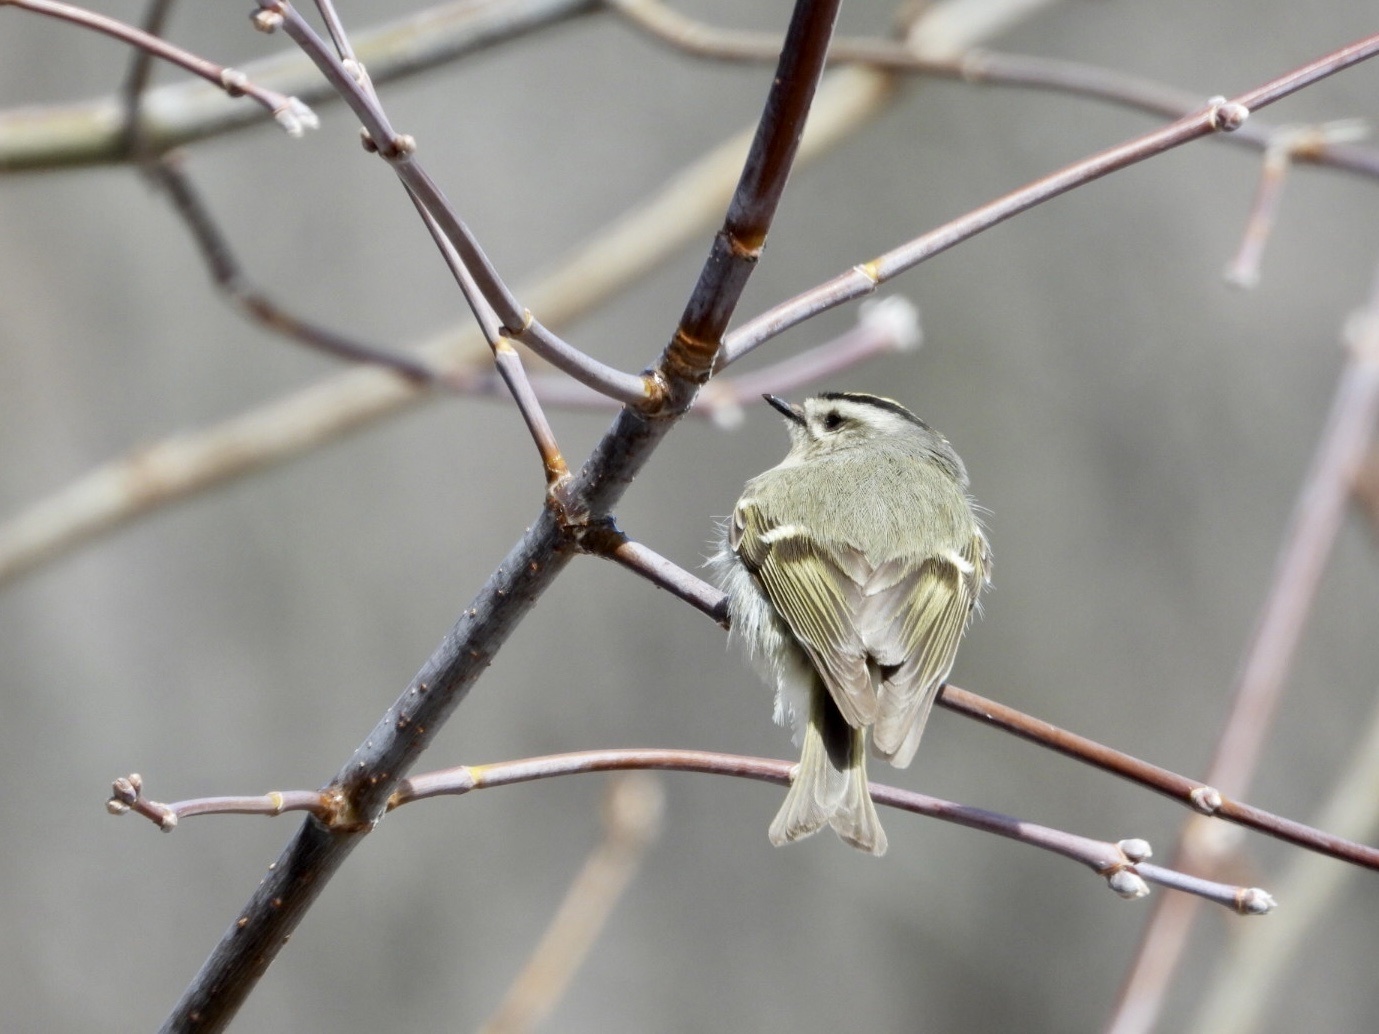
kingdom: Animalia
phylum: Chordata
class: Aves
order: Passeriformes
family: Regulidae
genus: Regulus
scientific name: Regulus satrapa
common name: Golden-crowned kinglet
